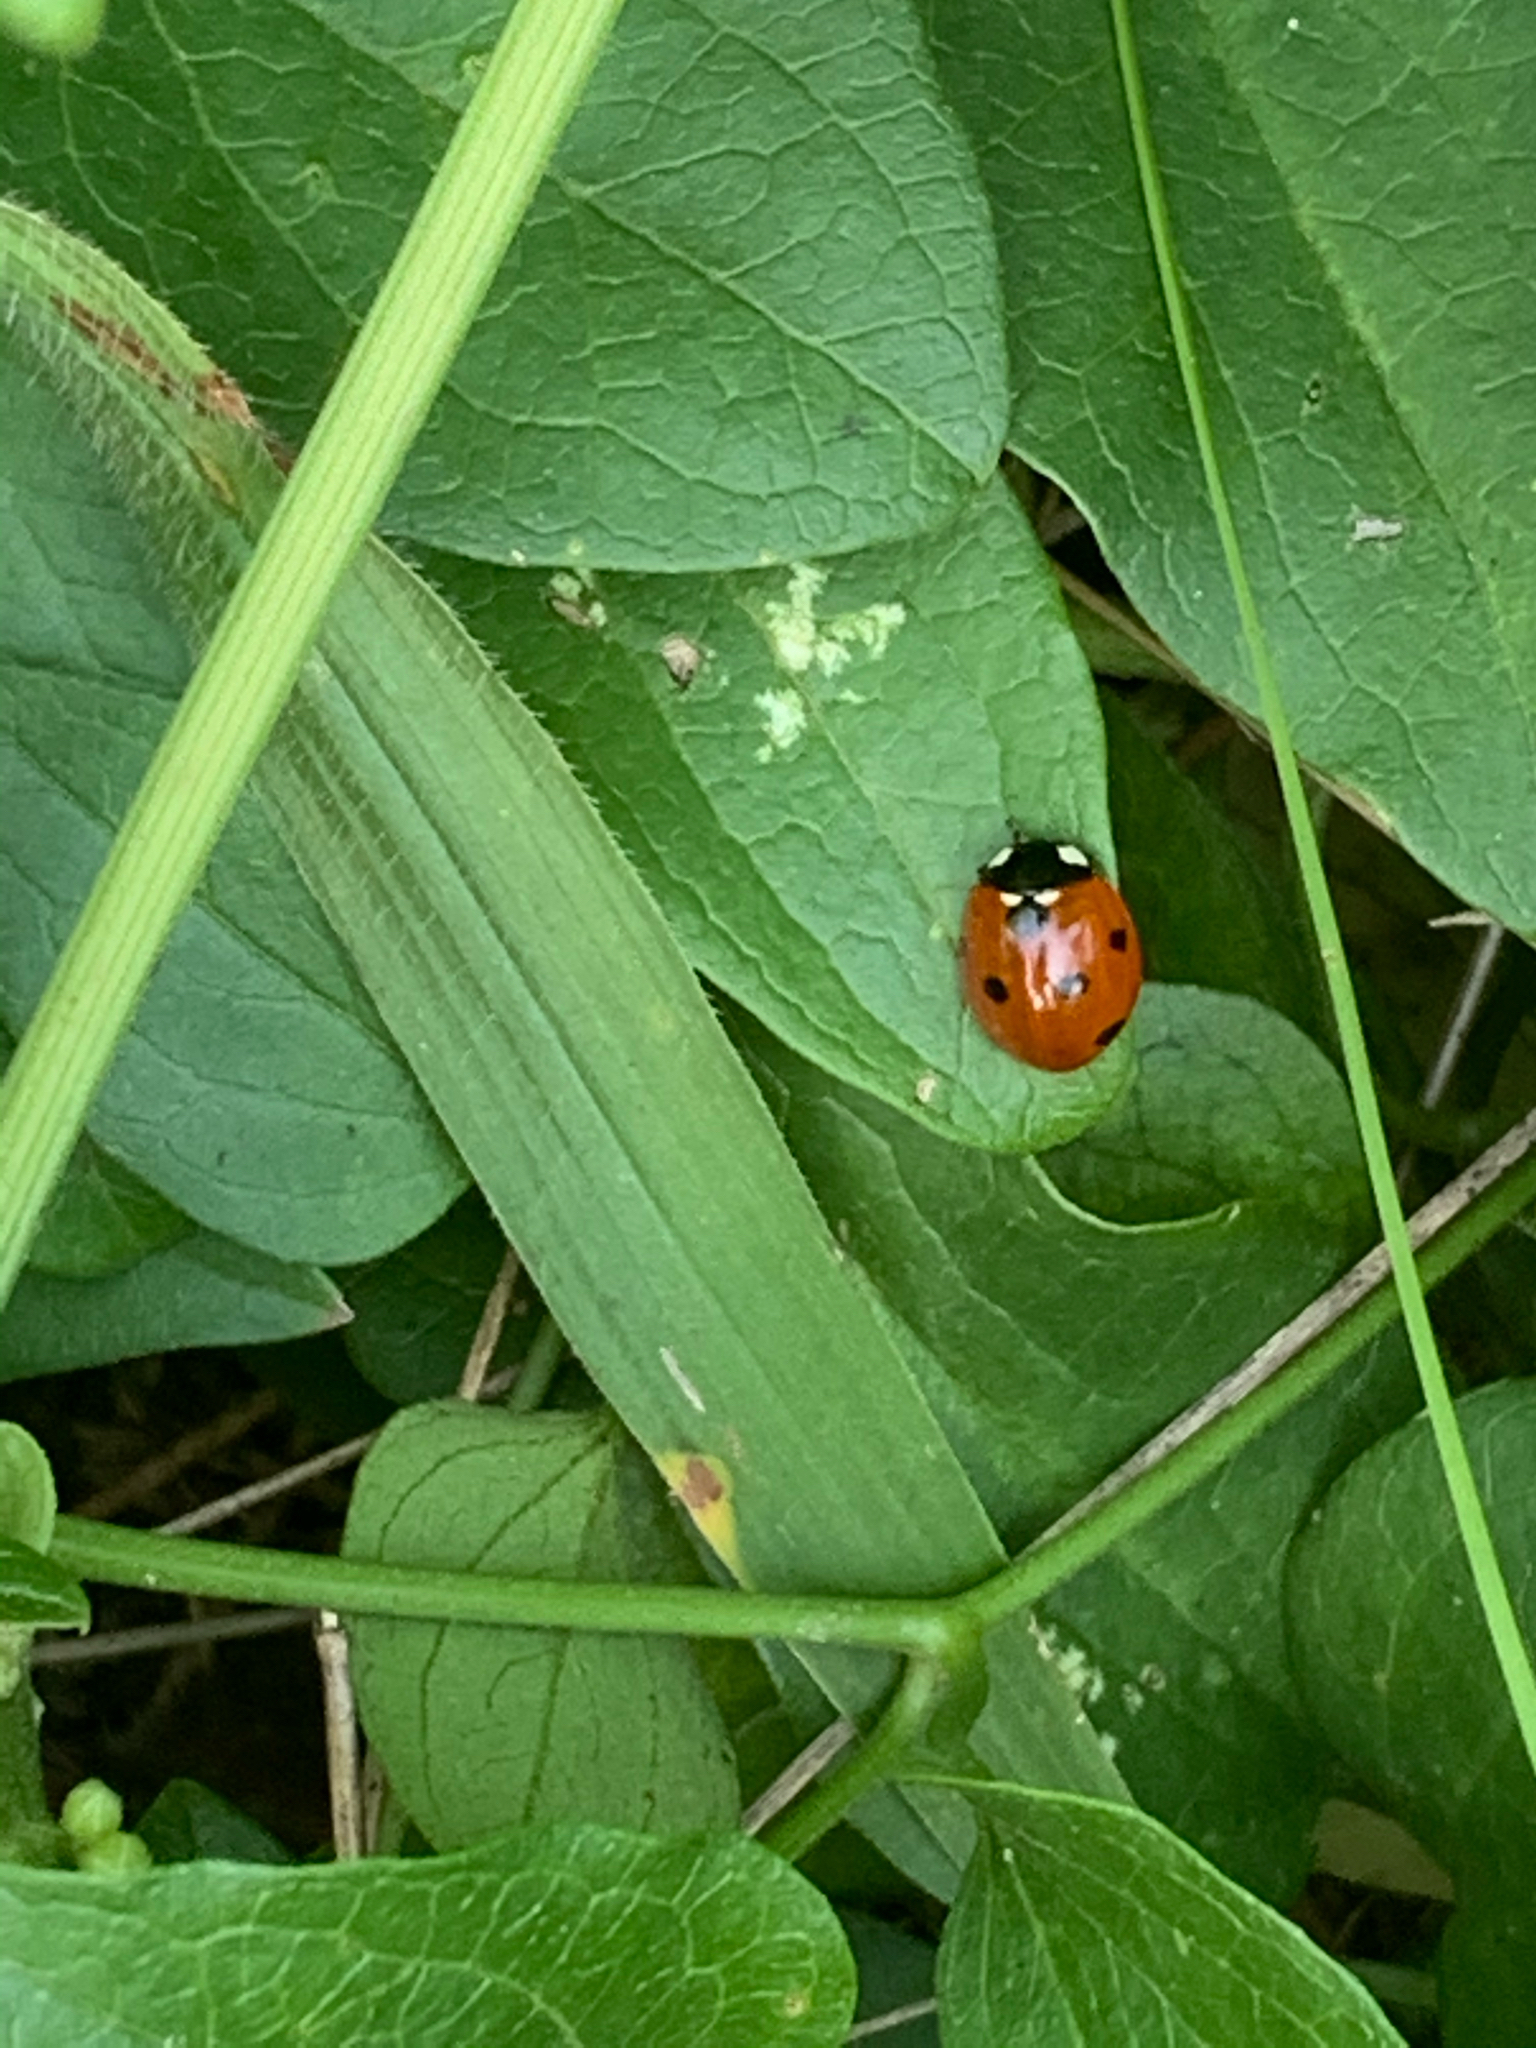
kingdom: Animalia
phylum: Arthropoda
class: Insecta
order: Coleoptera
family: Coccinellidae
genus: Coccinella
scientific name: Coccinella septempunctata
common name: Sevenspotted lady beetle
